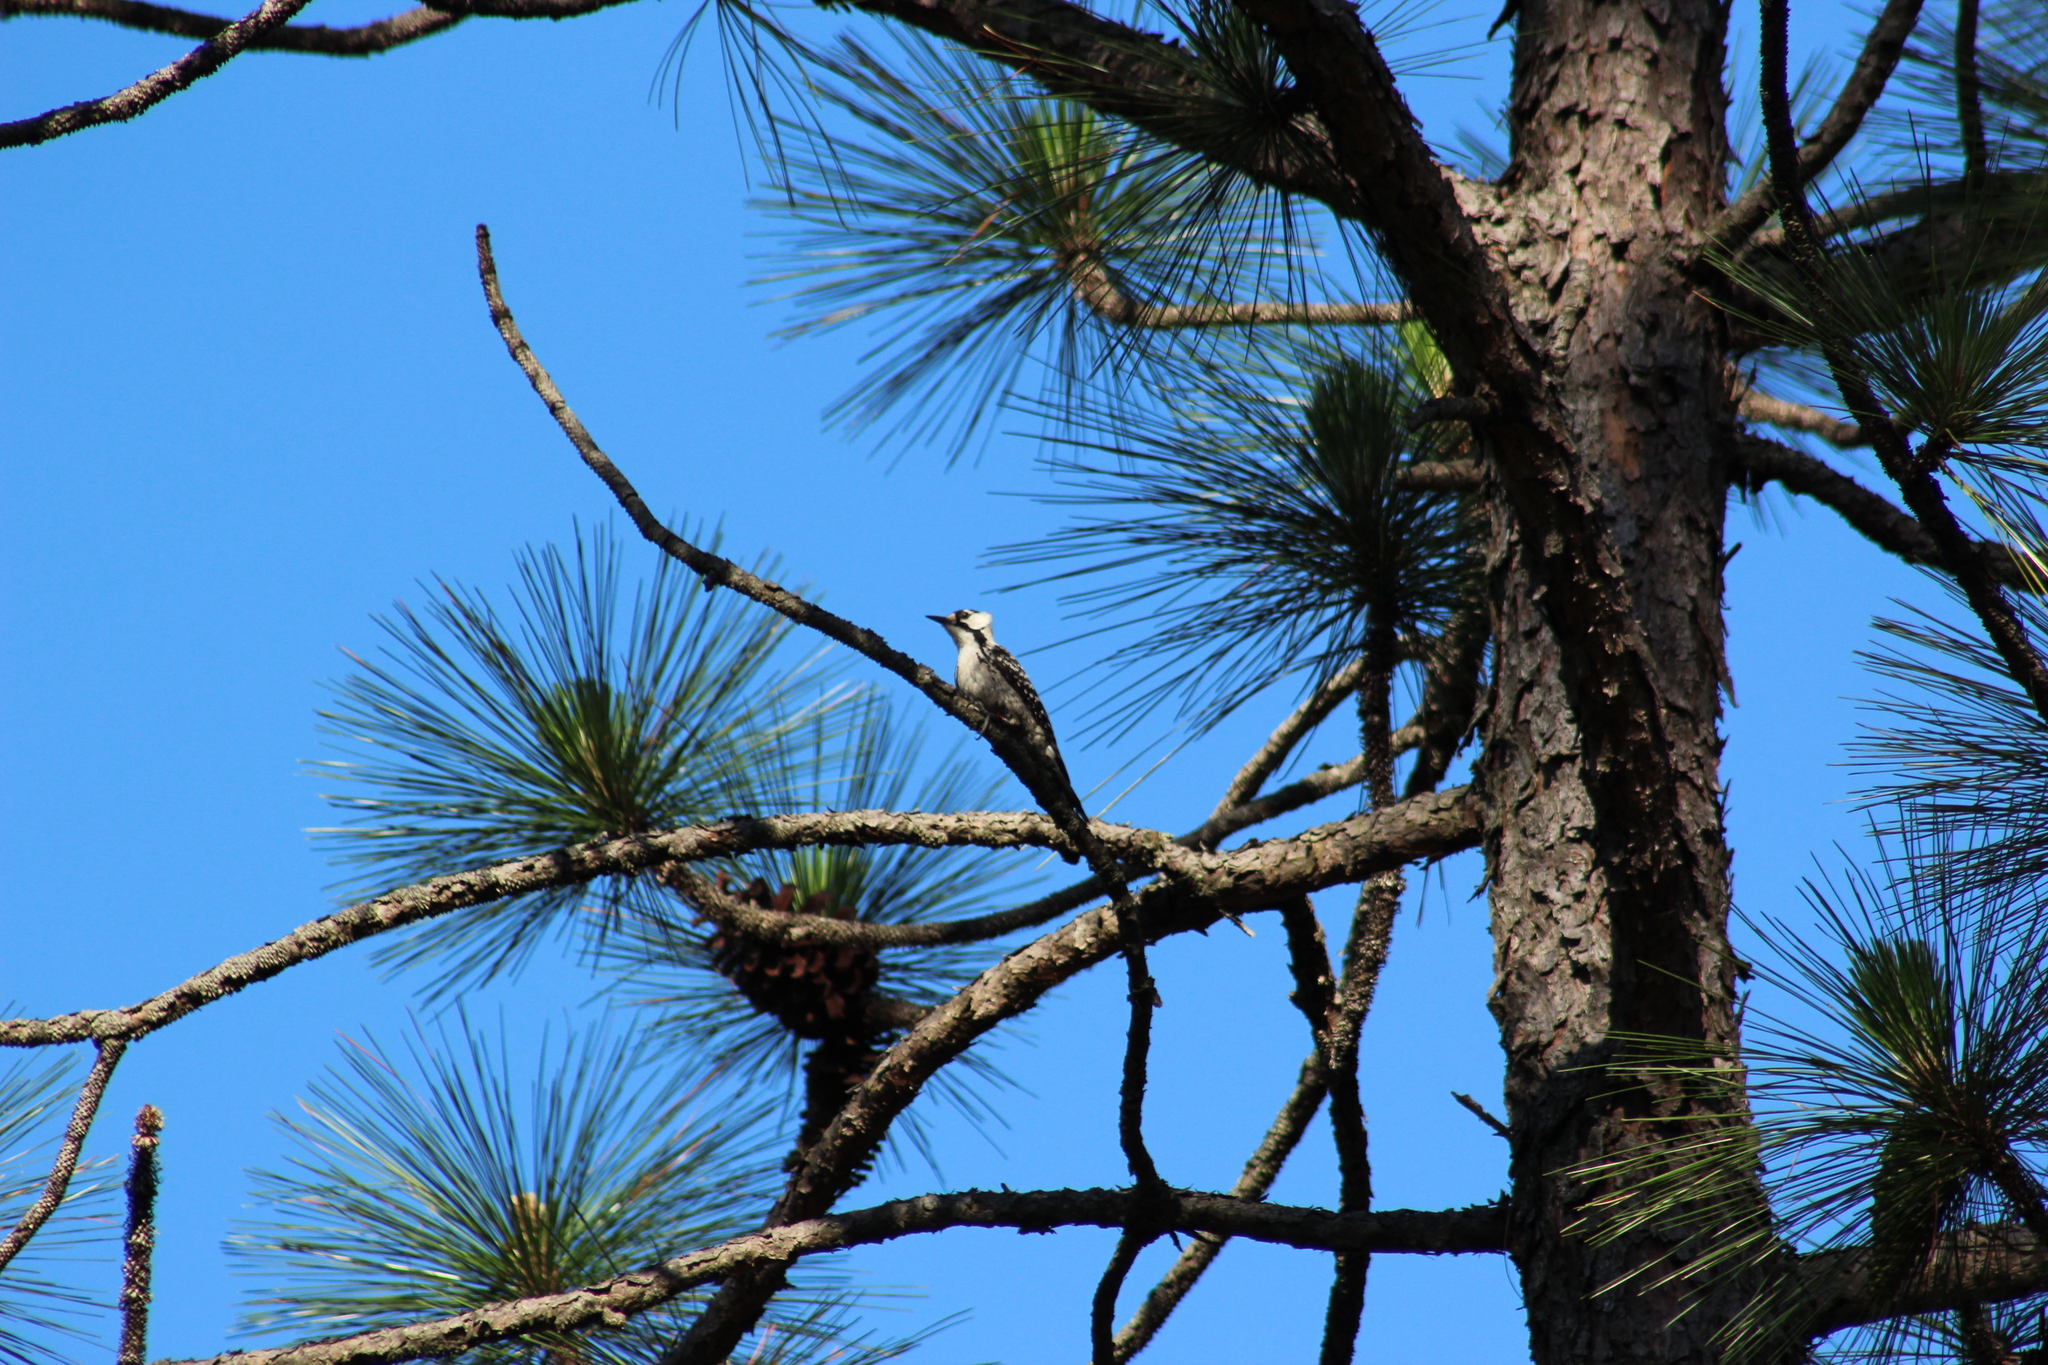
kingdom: Animalia
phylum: Chordata
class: Aves
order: Piciformes
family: Picidae
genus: Leuconotopicus
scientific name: Leuconotopicus borealis
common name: Red-cockaded woodpecker
